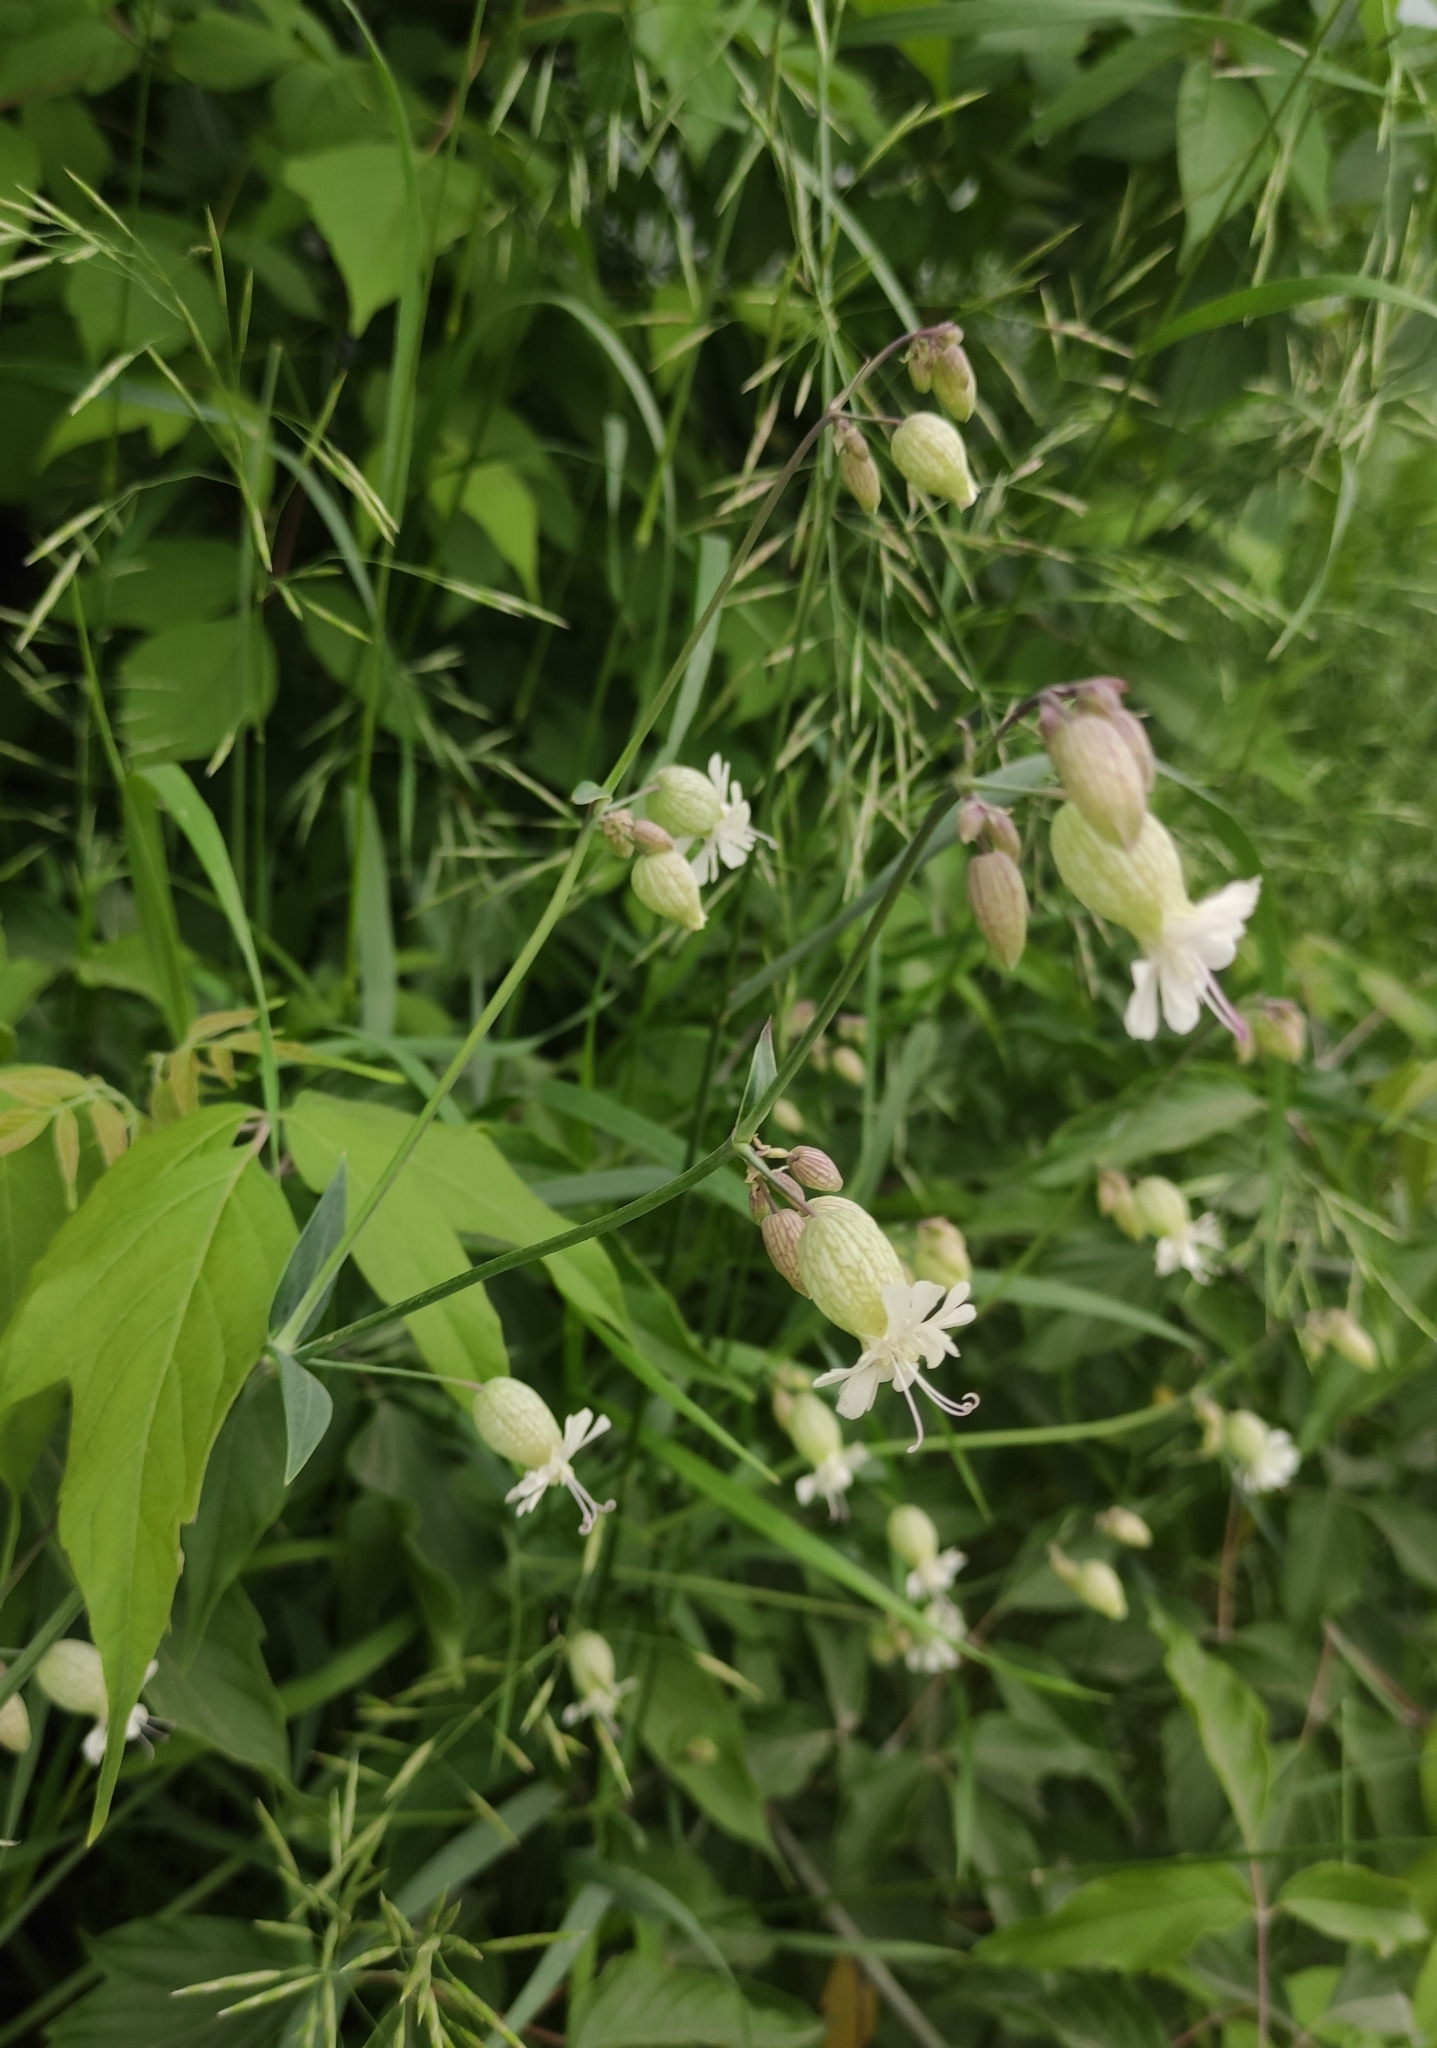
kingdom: Plantae
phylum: Tracheophyta
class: Magnoliopsida
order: Caryophyllales
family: Caryophyllaceae
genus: Silene
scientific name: Silene vulgaris
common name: Bladder campion
